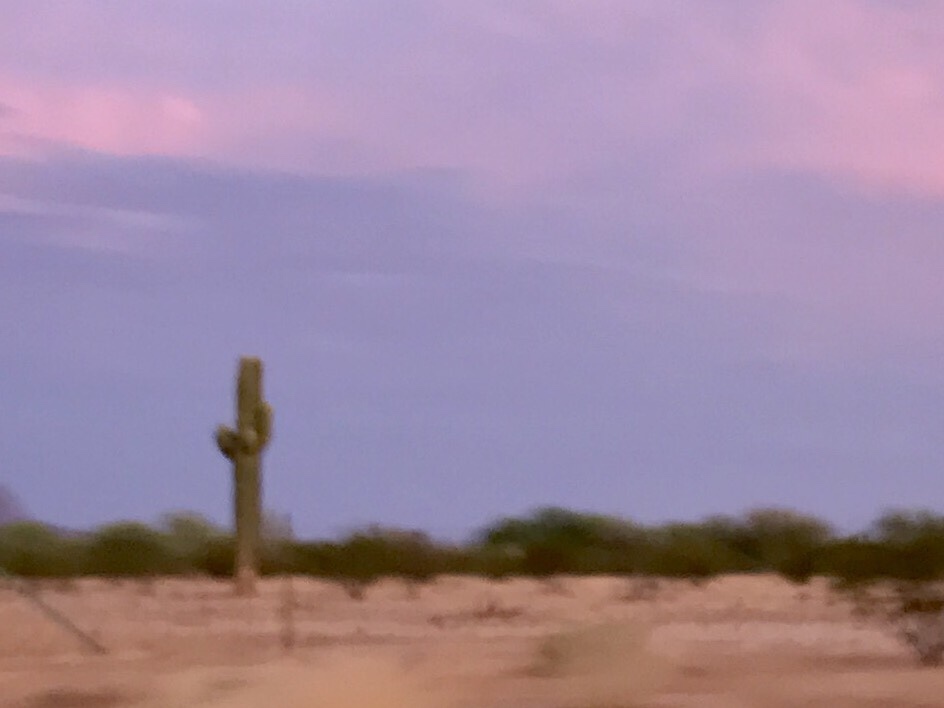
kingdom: Plantae
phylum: Tracheophyta
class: Magnoliopsida
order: Caryophyllales
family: Cactaceae
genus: Carnegiea
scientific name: Carnegiea gigantea
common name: Saguaro
